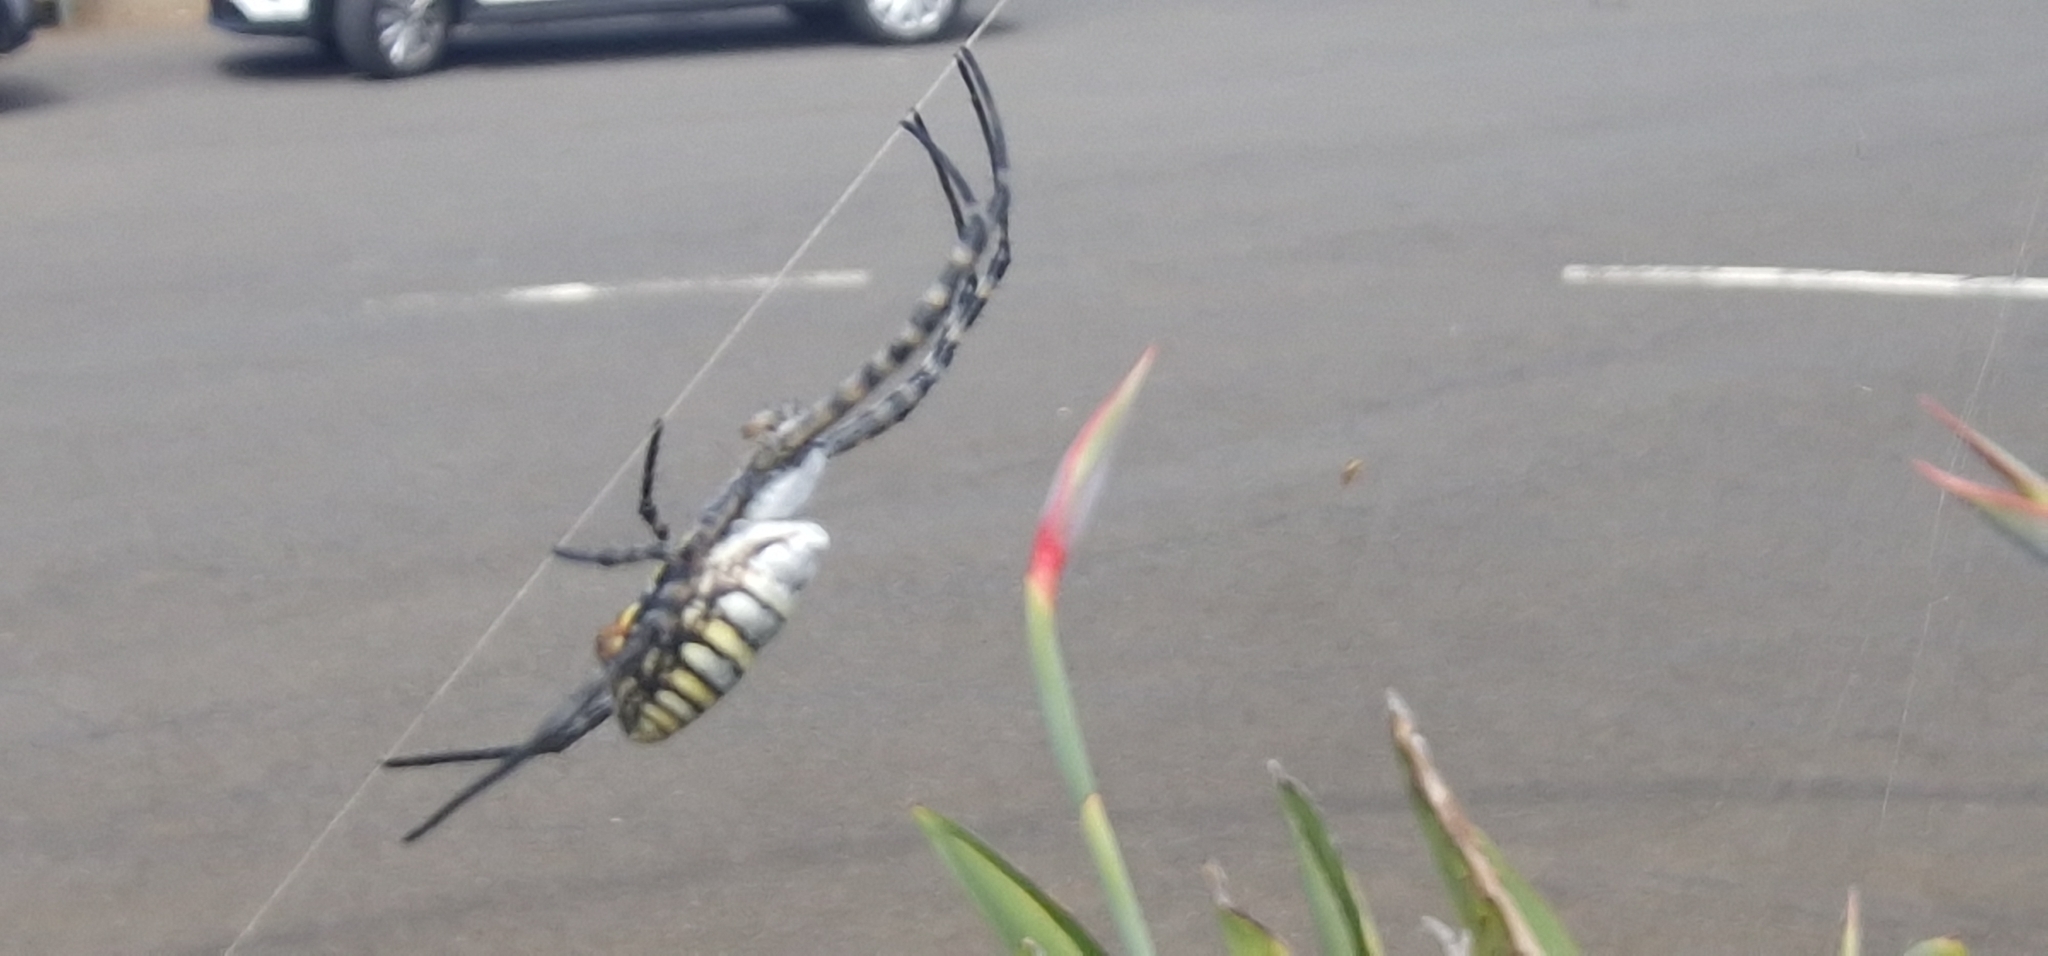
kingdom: Animalia
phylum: Arthropoda
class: Arachnida
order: Araneae
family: Araneidae
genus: Argiope
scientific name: Argiope trifasciata
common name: Banded garden spider
